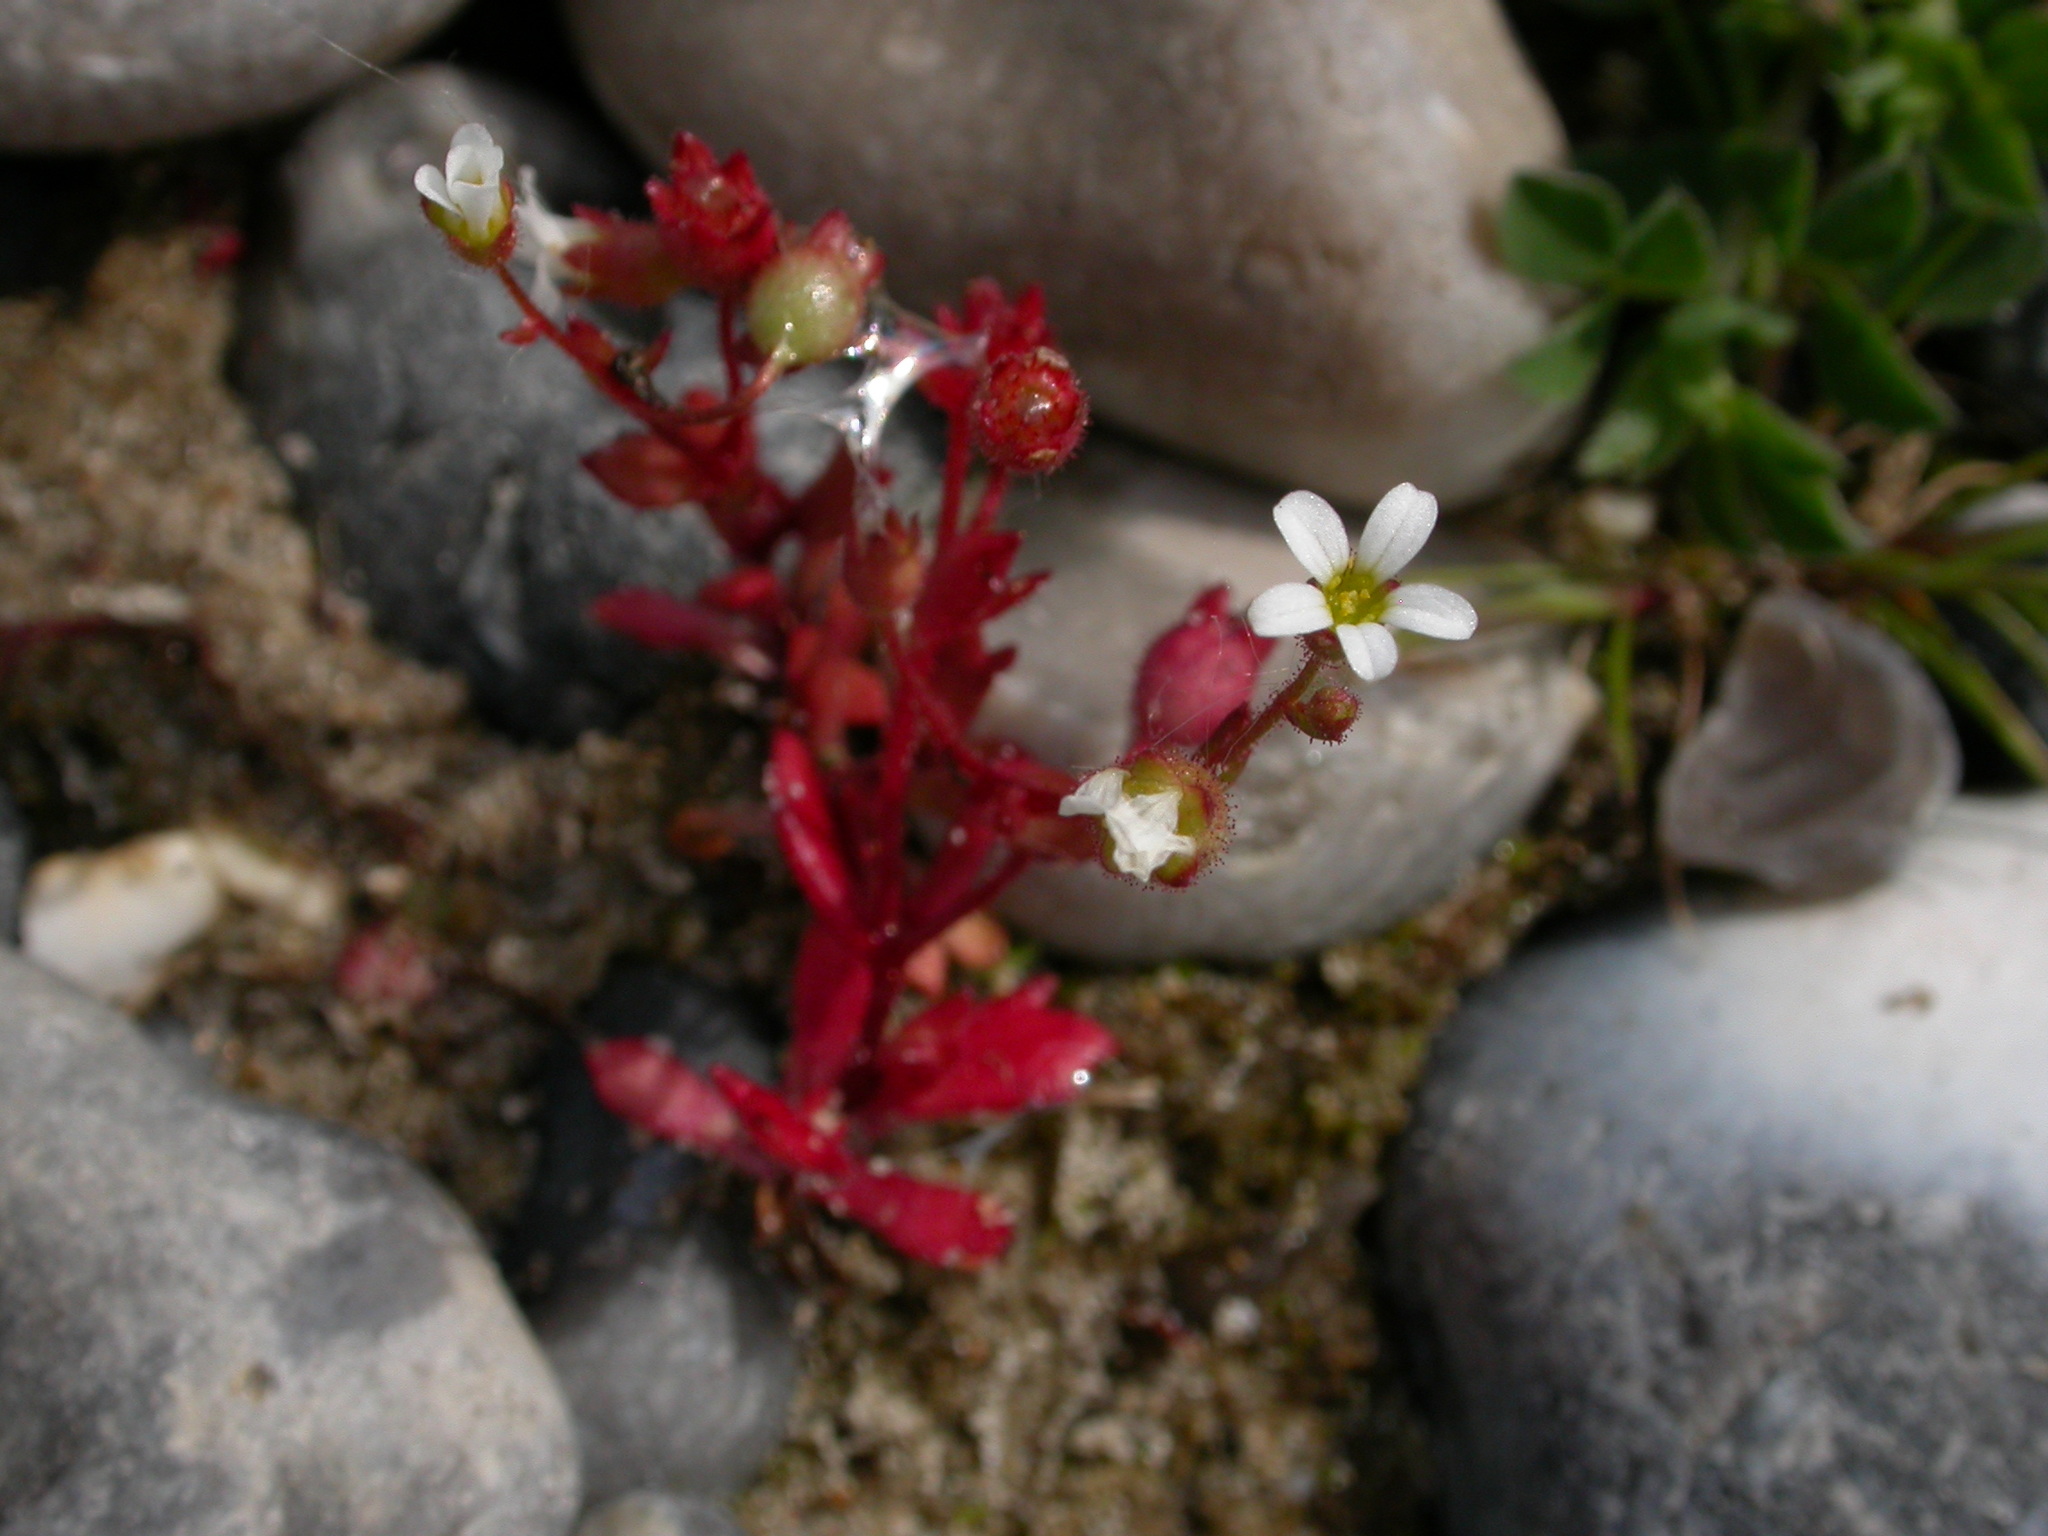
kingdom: Plantae
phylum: Tracheophyta
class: Magnoliopsida
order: Saxifragales
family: Saxifragaceae
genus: Saxifraga
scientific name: Saxifraga tridactylites
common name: Rue-leaved saxifrage
